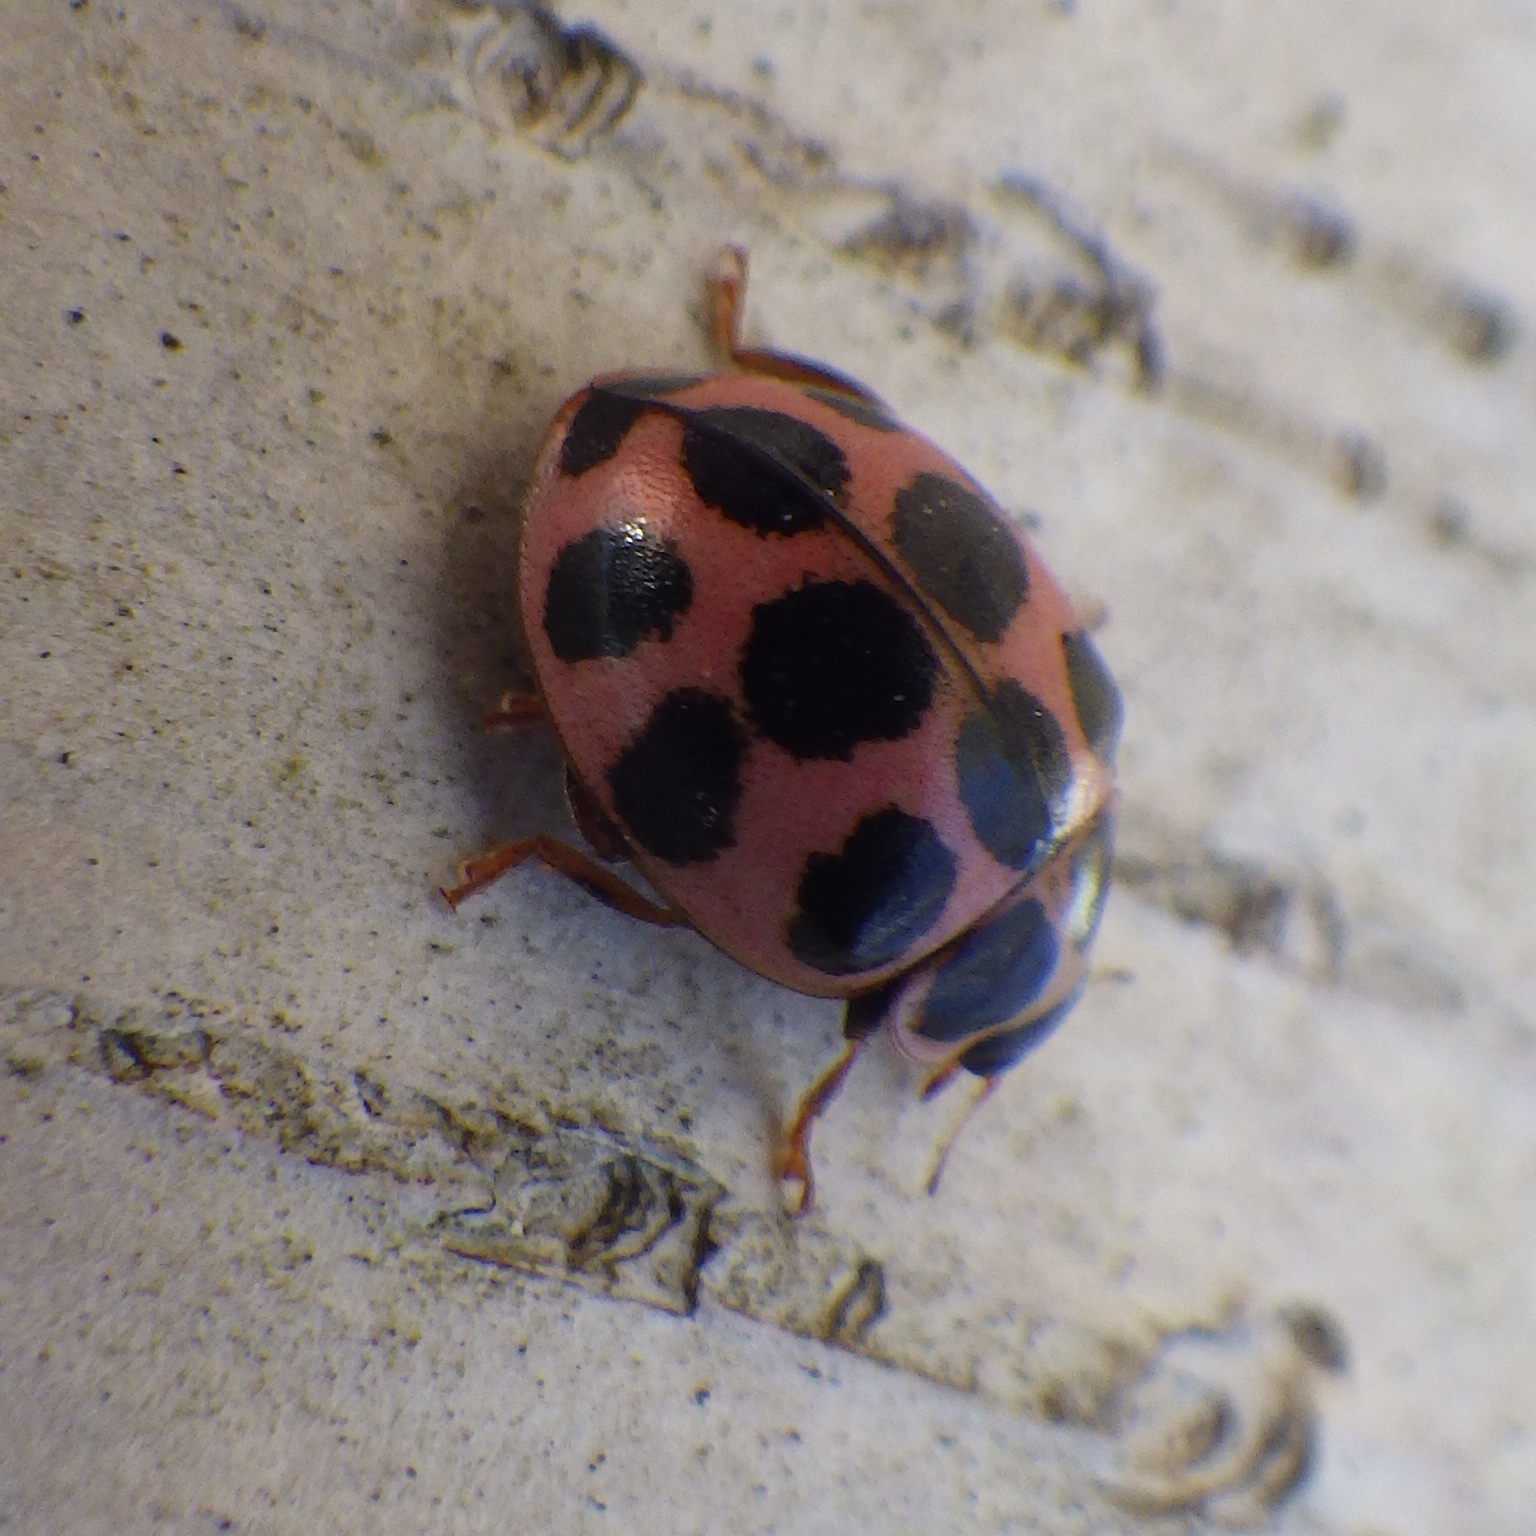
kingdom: Animalia
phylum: Arthropoda
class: Insecta
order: Coleoptera
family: Coccinellidae
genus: Calvia
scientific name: Calvia quatuordecimguttata
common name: Cream-spot ladybird
